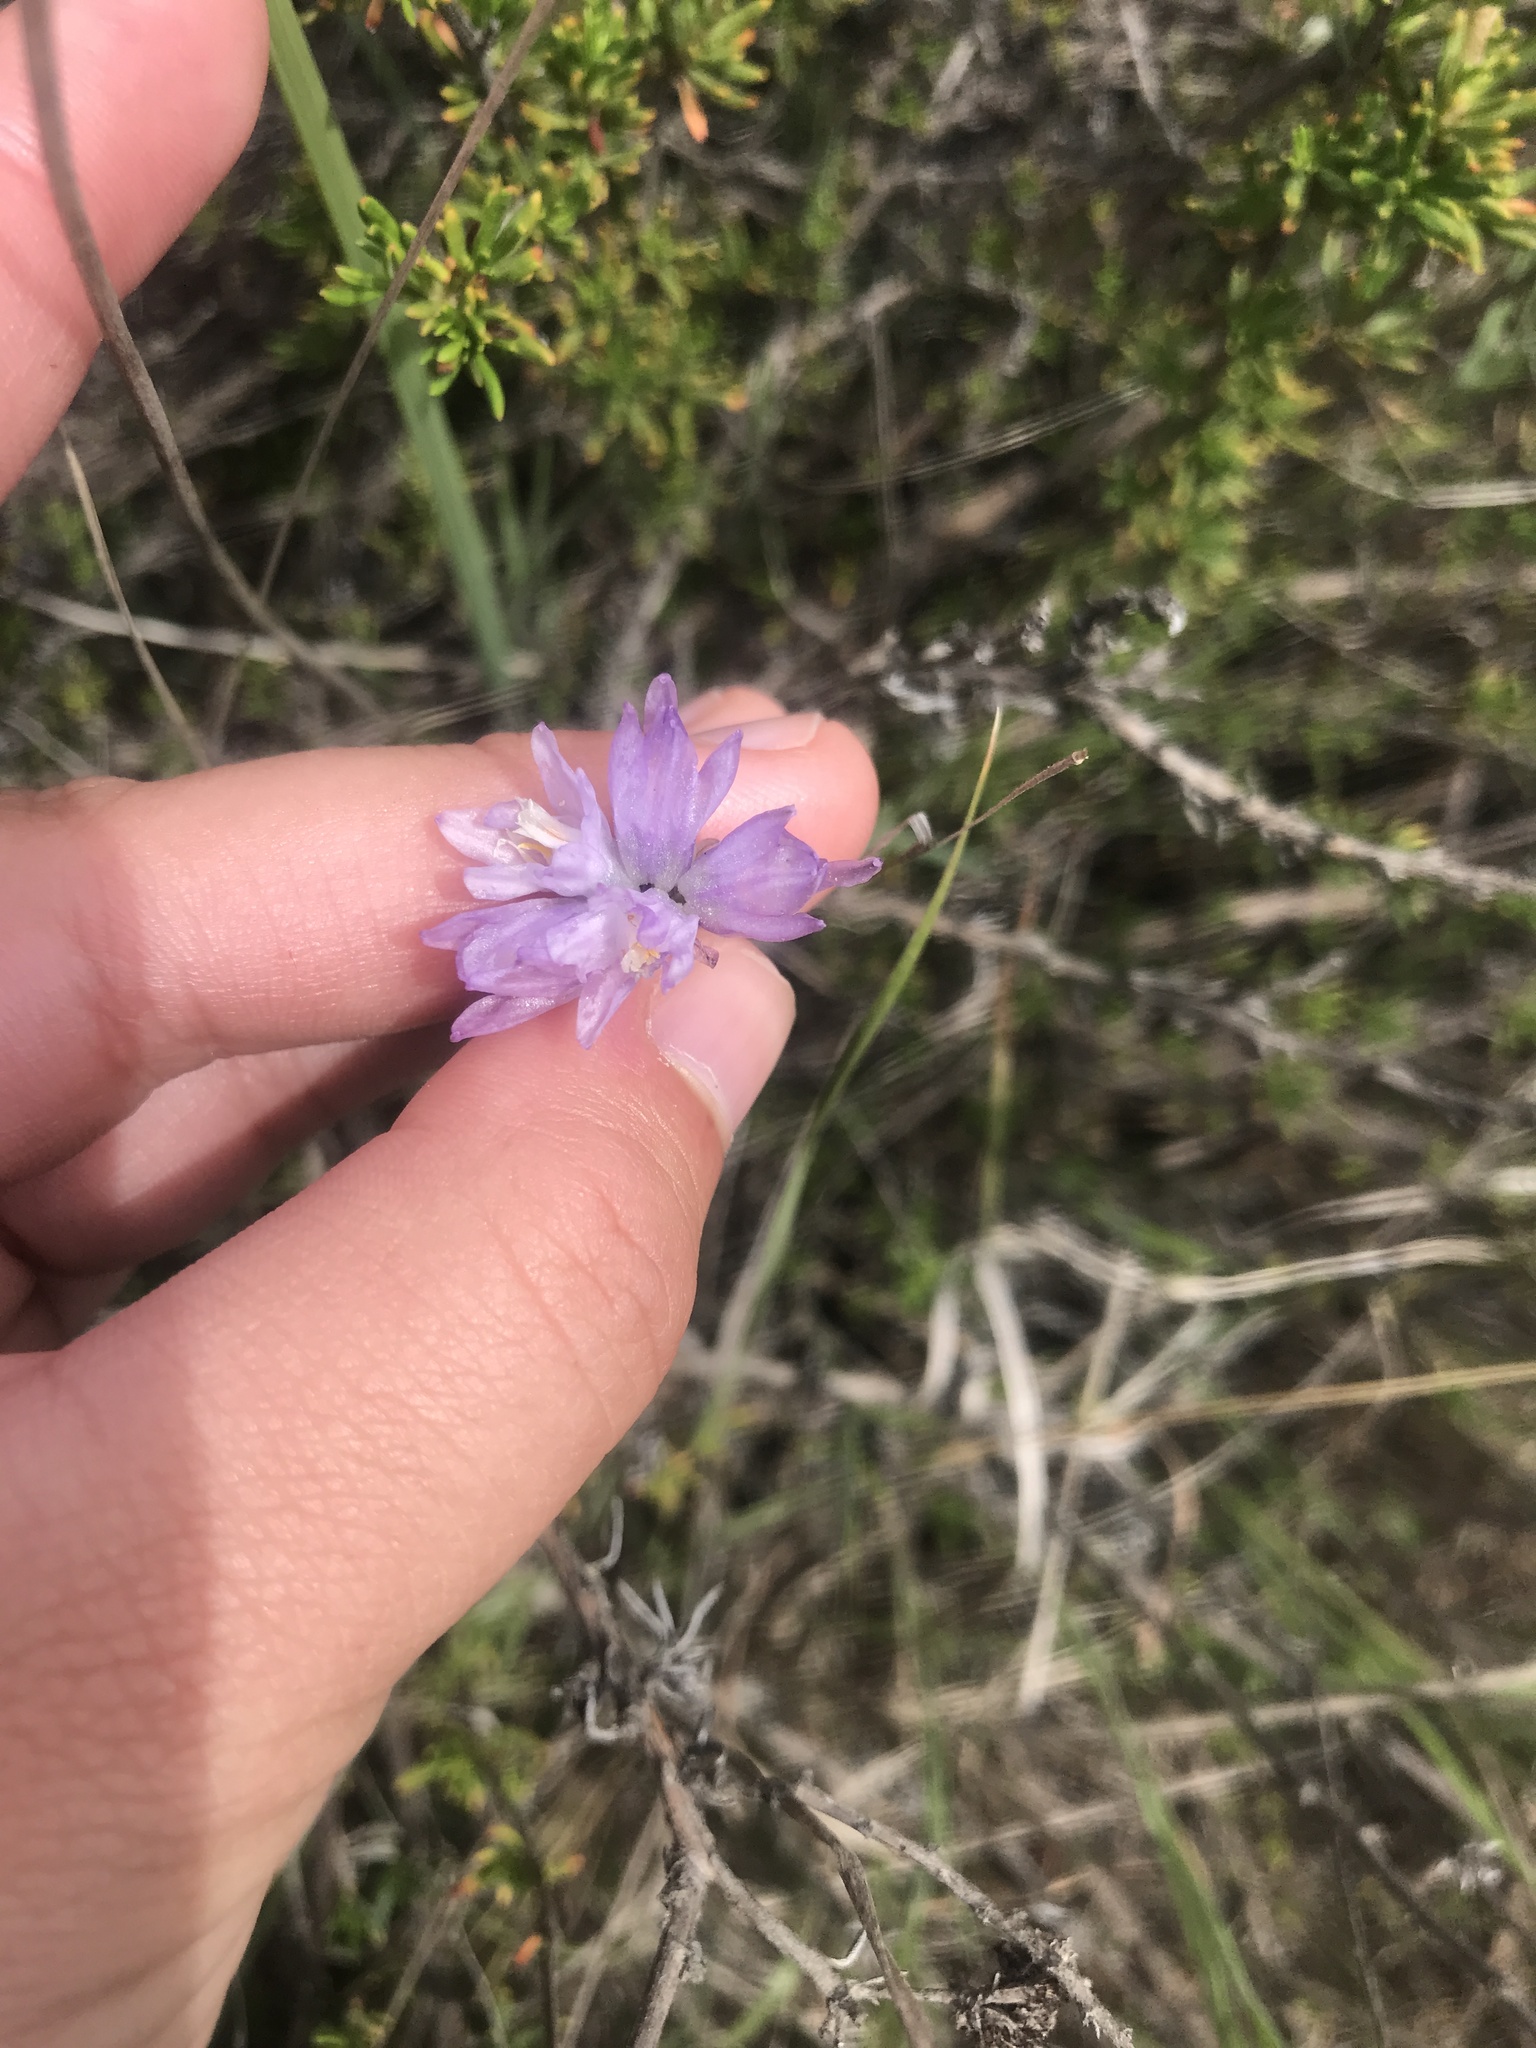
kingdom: Plantae
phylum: Tracheophyta
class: Liliopsida
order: Asparagales
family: Asparagaceae
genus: Dipterostemon
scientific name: Dipterostemon capitatus
